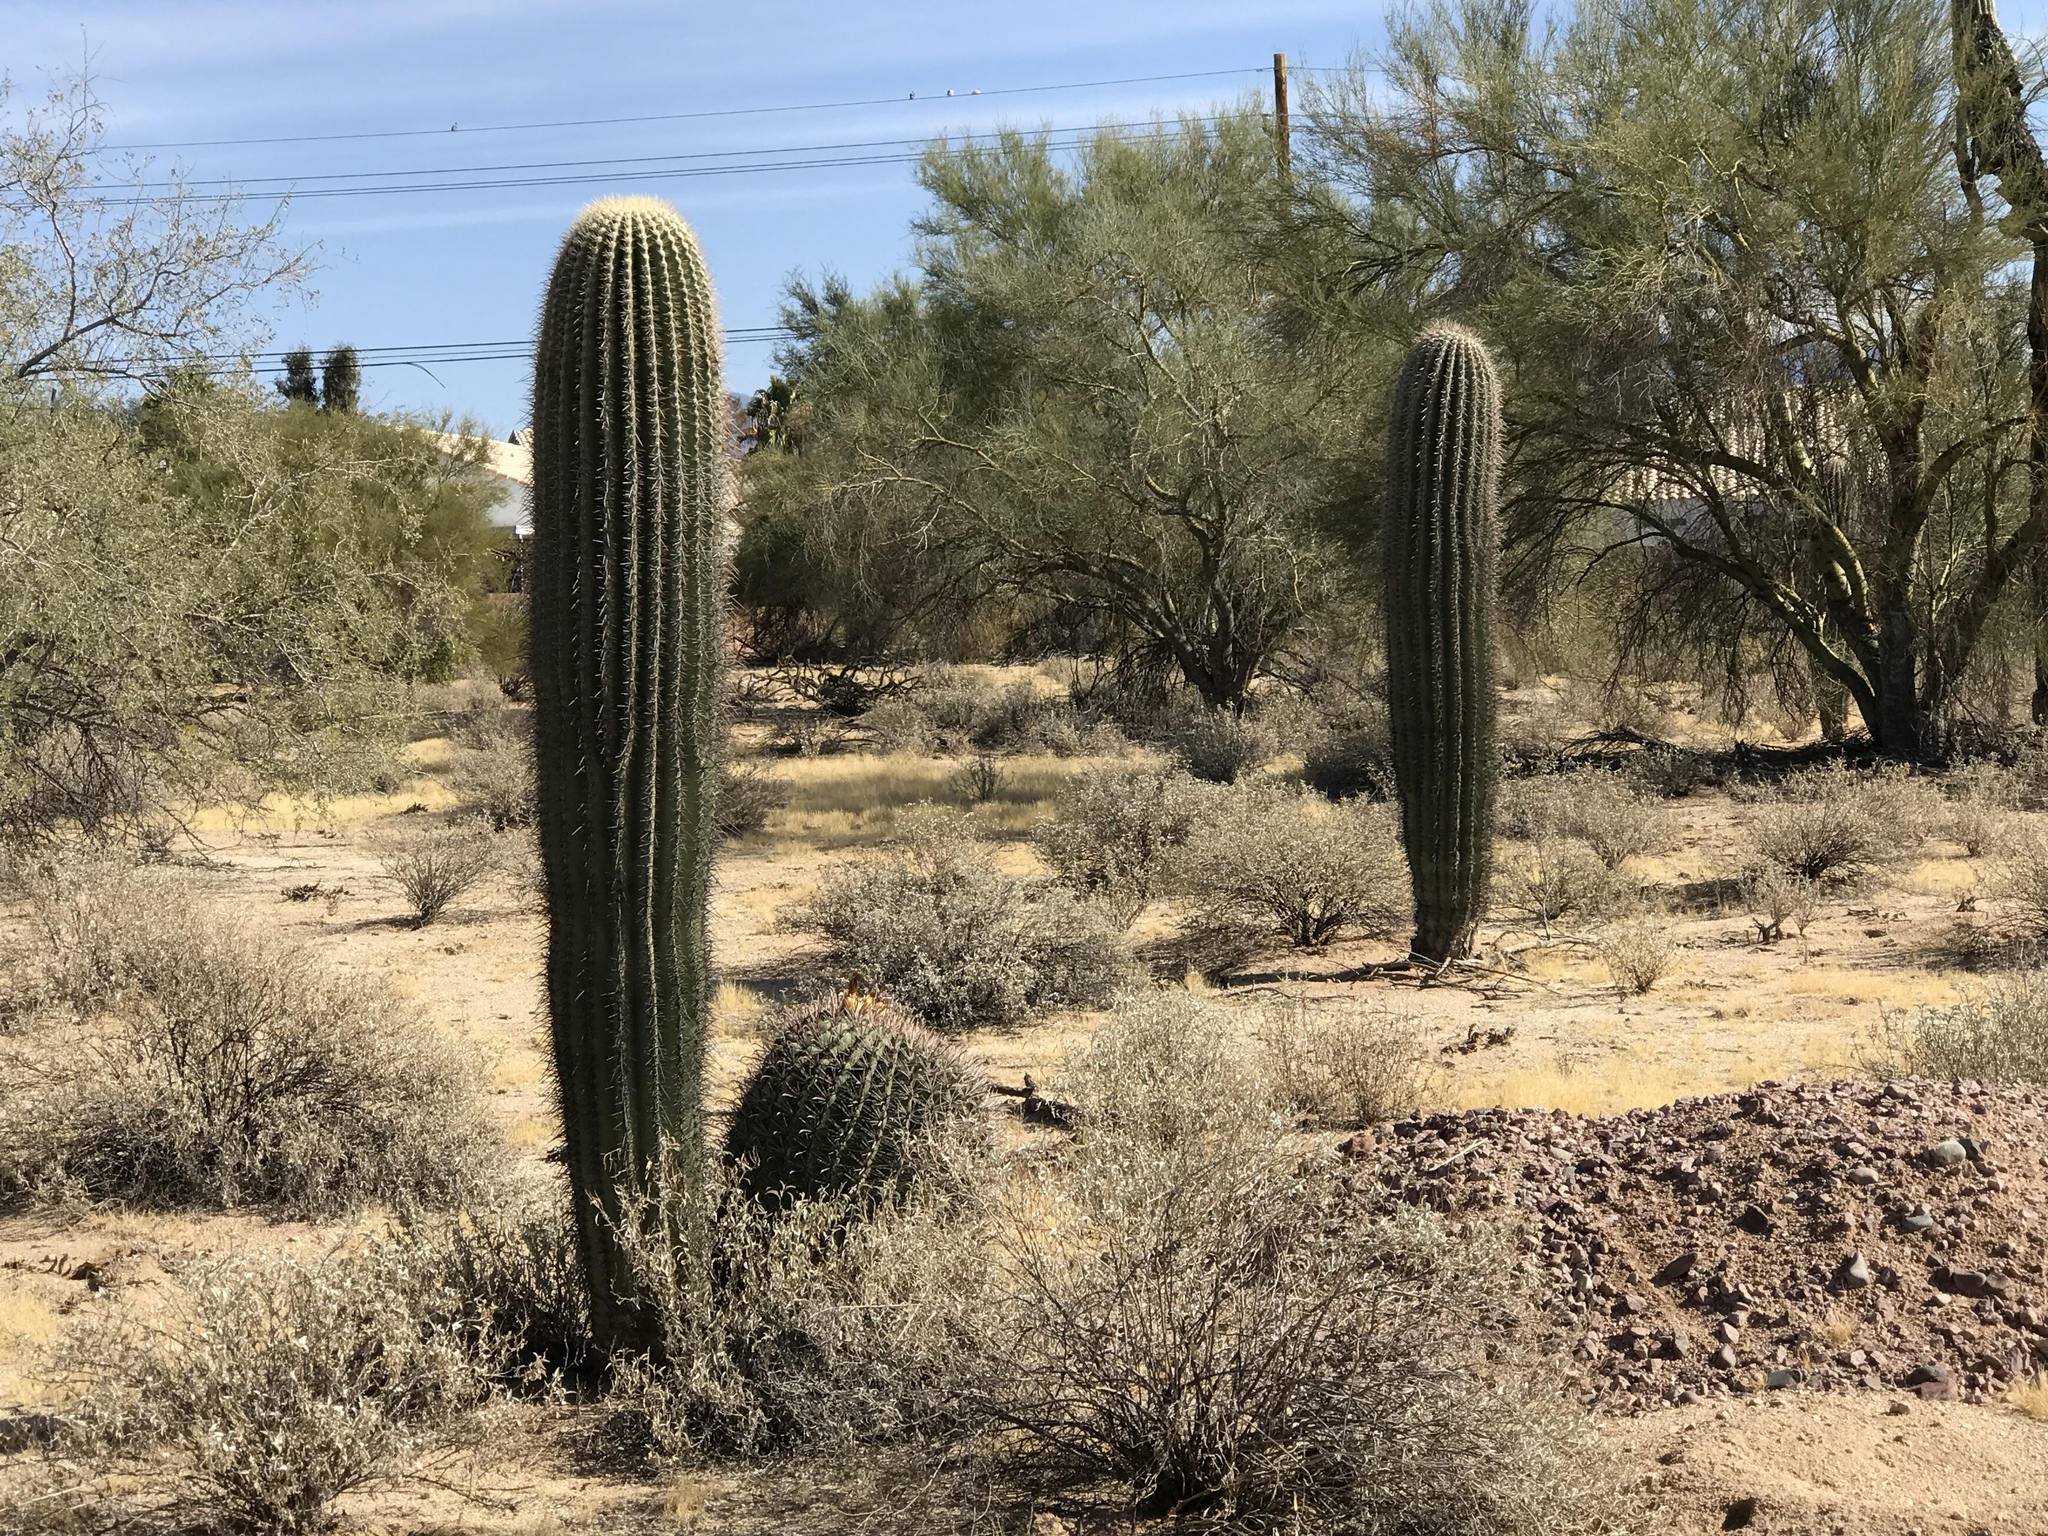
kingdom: Plantae
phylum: Tracheophyta
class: Magnoliopsida
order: Caryophyllales
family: Cactaceae
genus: Carnegiea
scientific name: Carnegiea gigantea
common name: Saguaro
